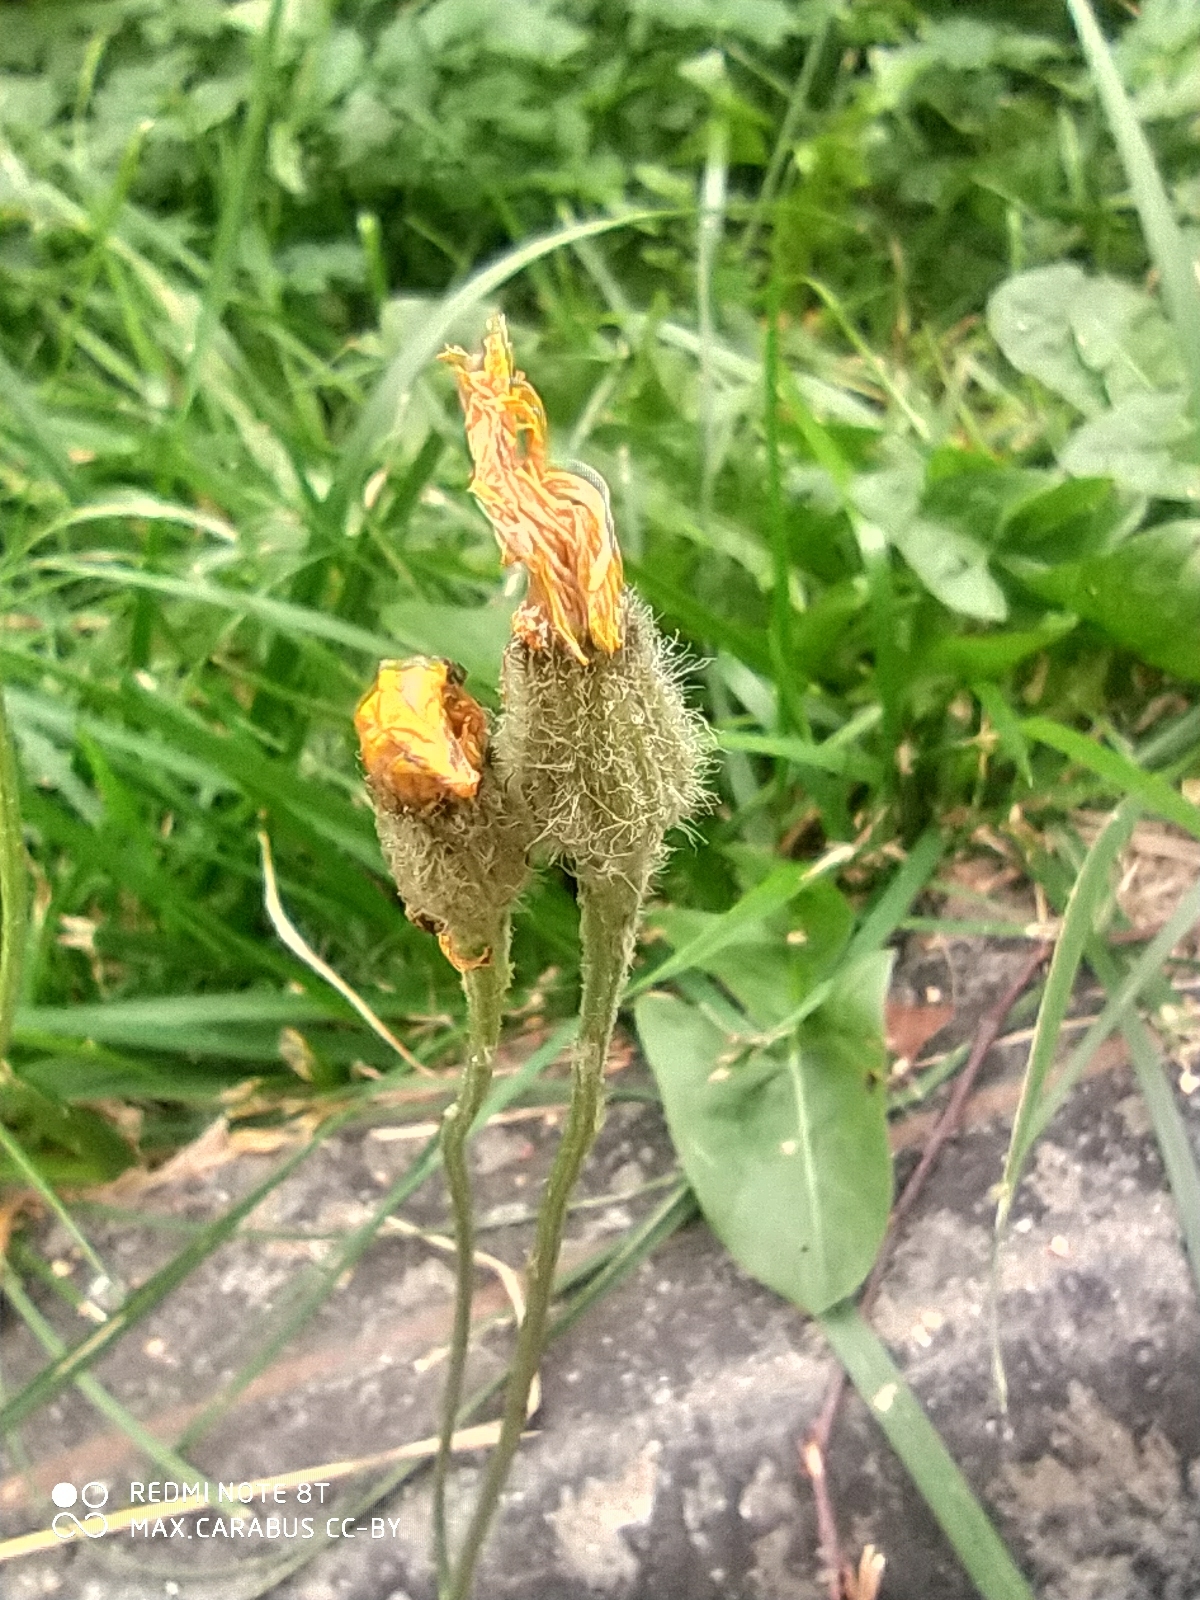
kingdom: Plantae
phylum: Tracheophyta
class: Magnoliopsida
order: Asterales
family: Asteraceae
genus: Scorzoneroides
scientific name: Scorzoneroides autumnalis
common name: Autumn hawkbit
